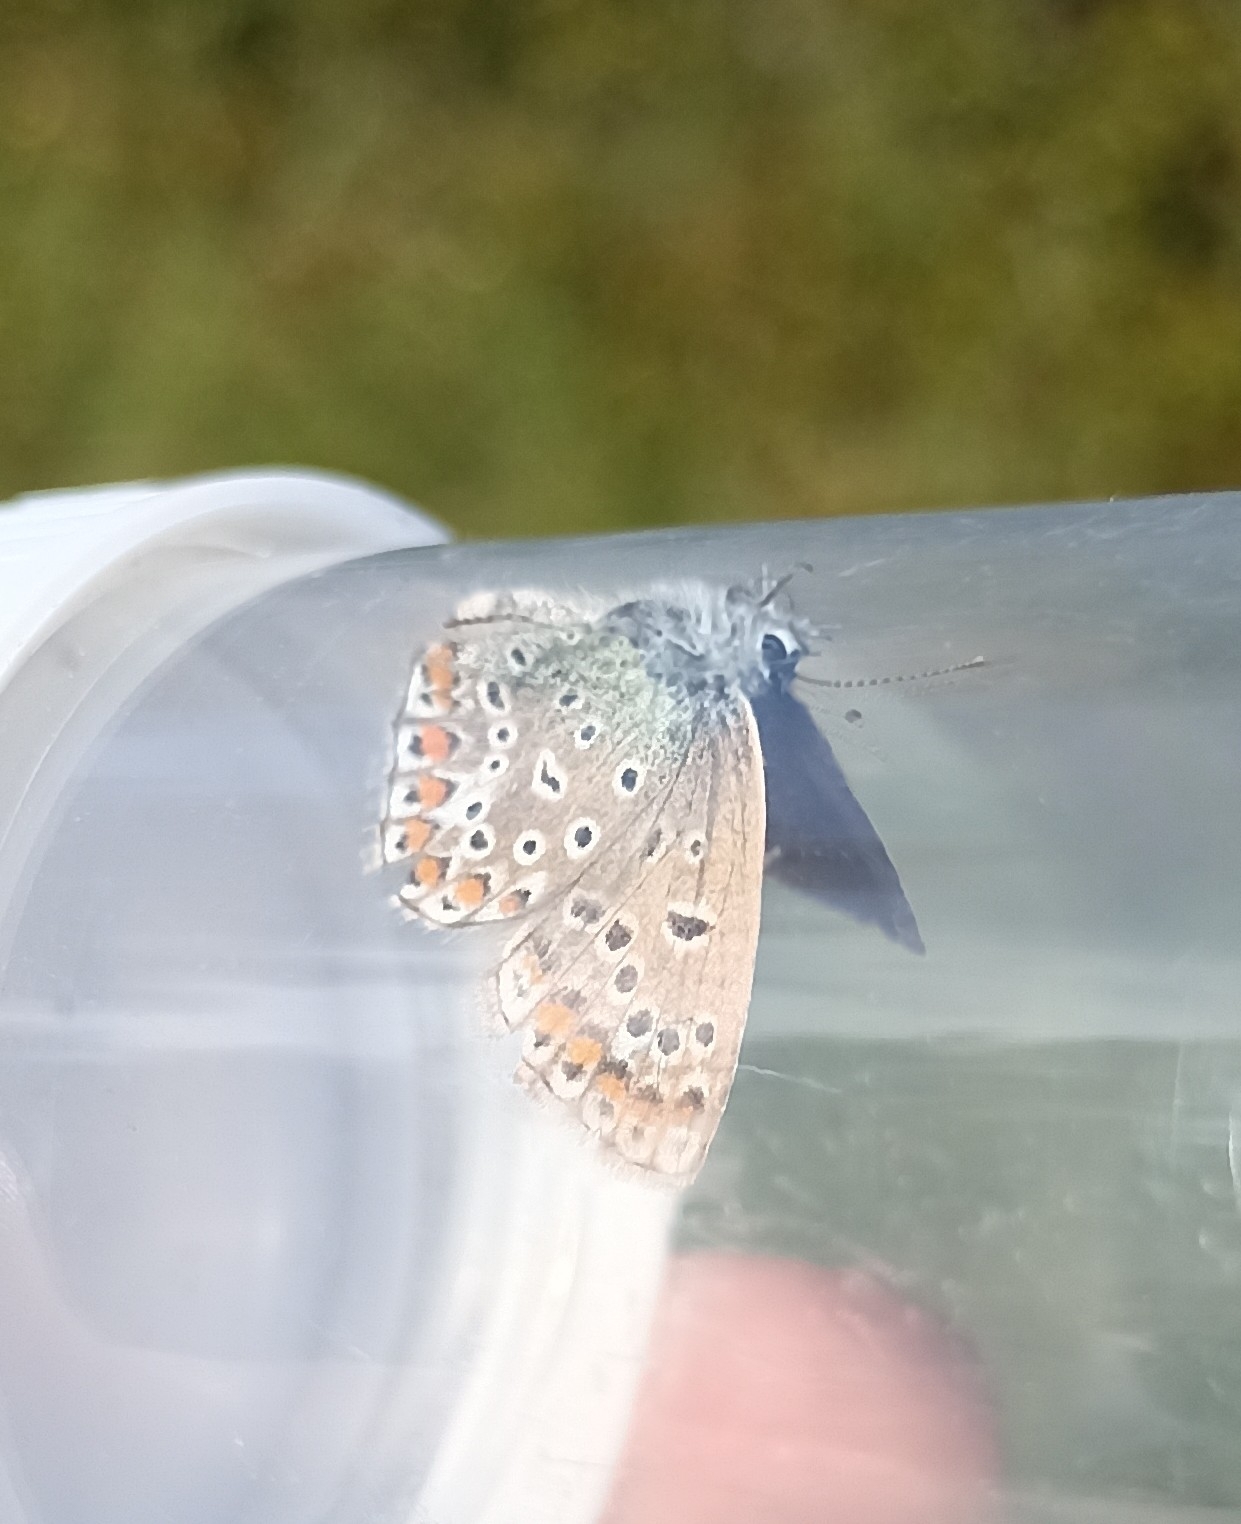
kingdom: Animalia
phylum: Arthropoda
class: Insecta
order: Lepidoptera
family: Lycaenidae
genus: Polyommatus
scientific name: Polyommatus icarus
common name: Common blue
